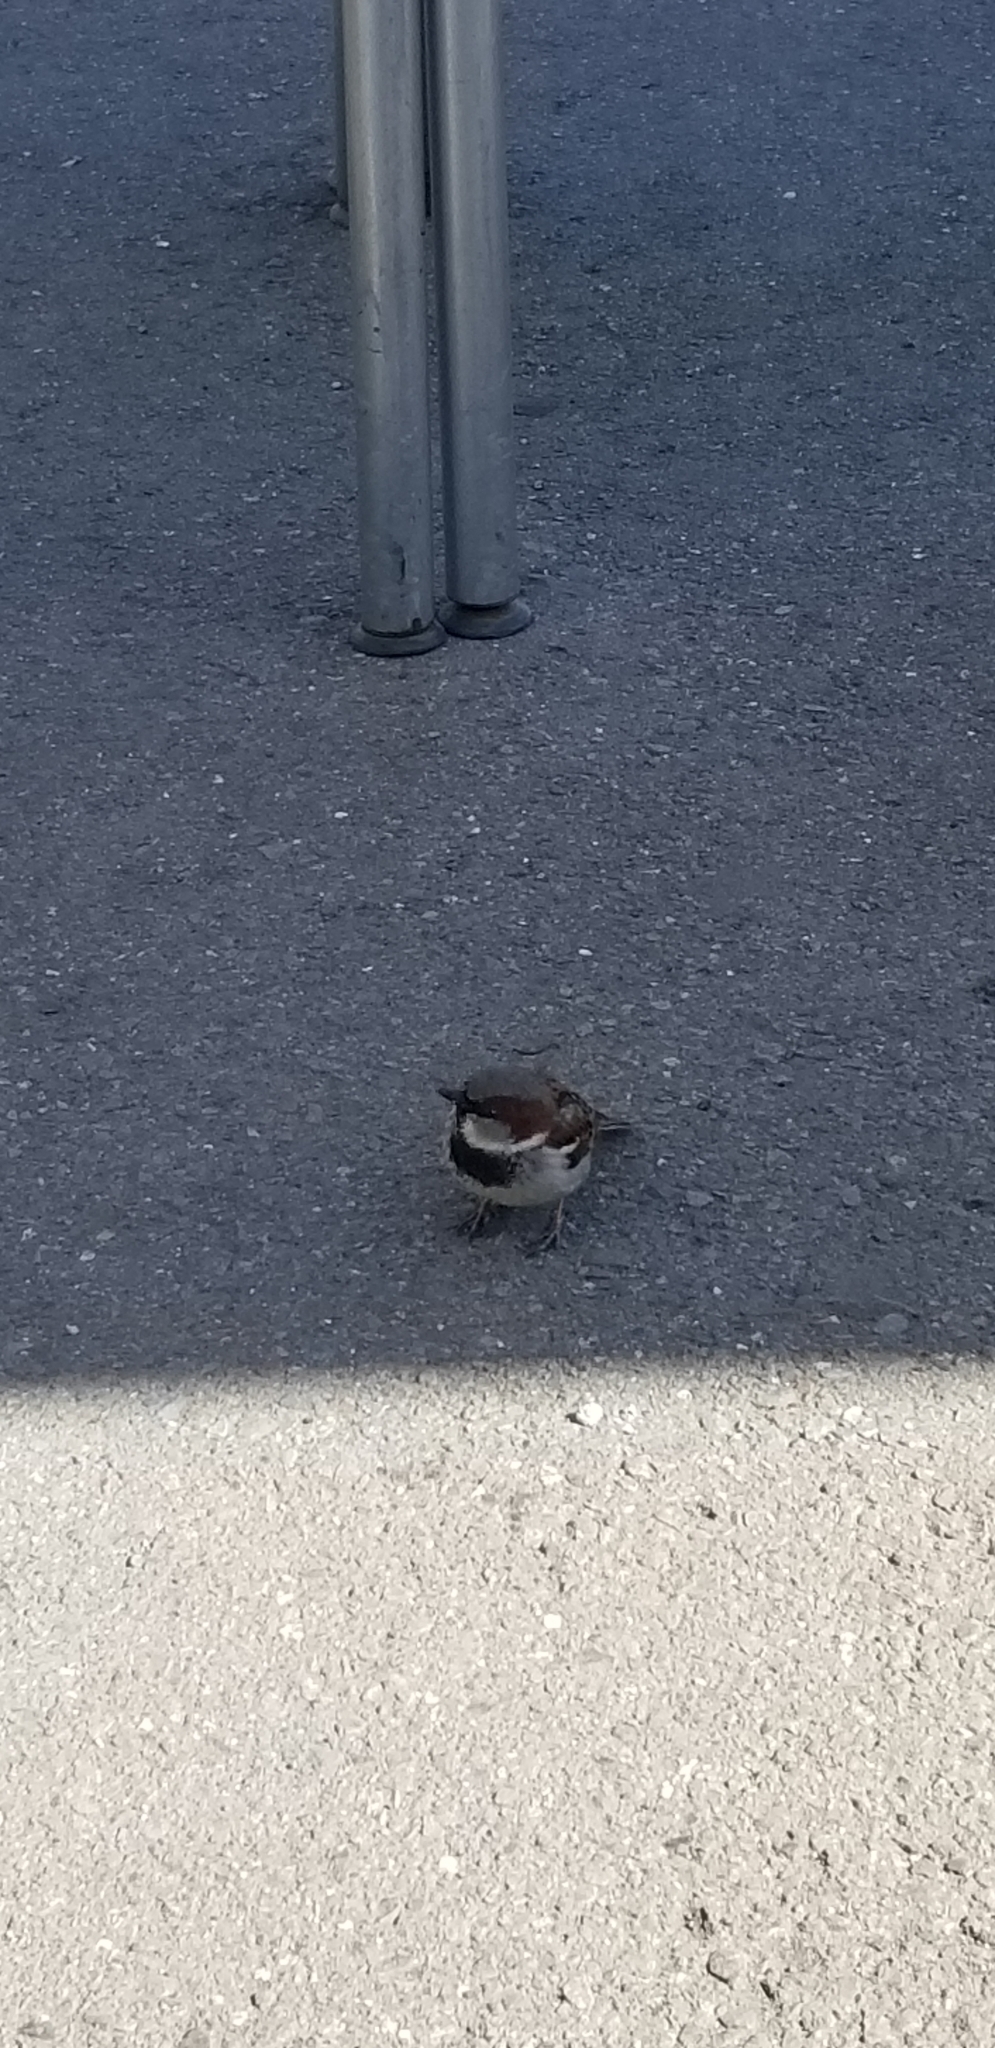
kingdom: Animalia
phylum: Chordata
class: Aves
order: Passeriformes
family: Passeridae
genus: Passer
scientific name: Passer domesticus
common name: House sparrow
